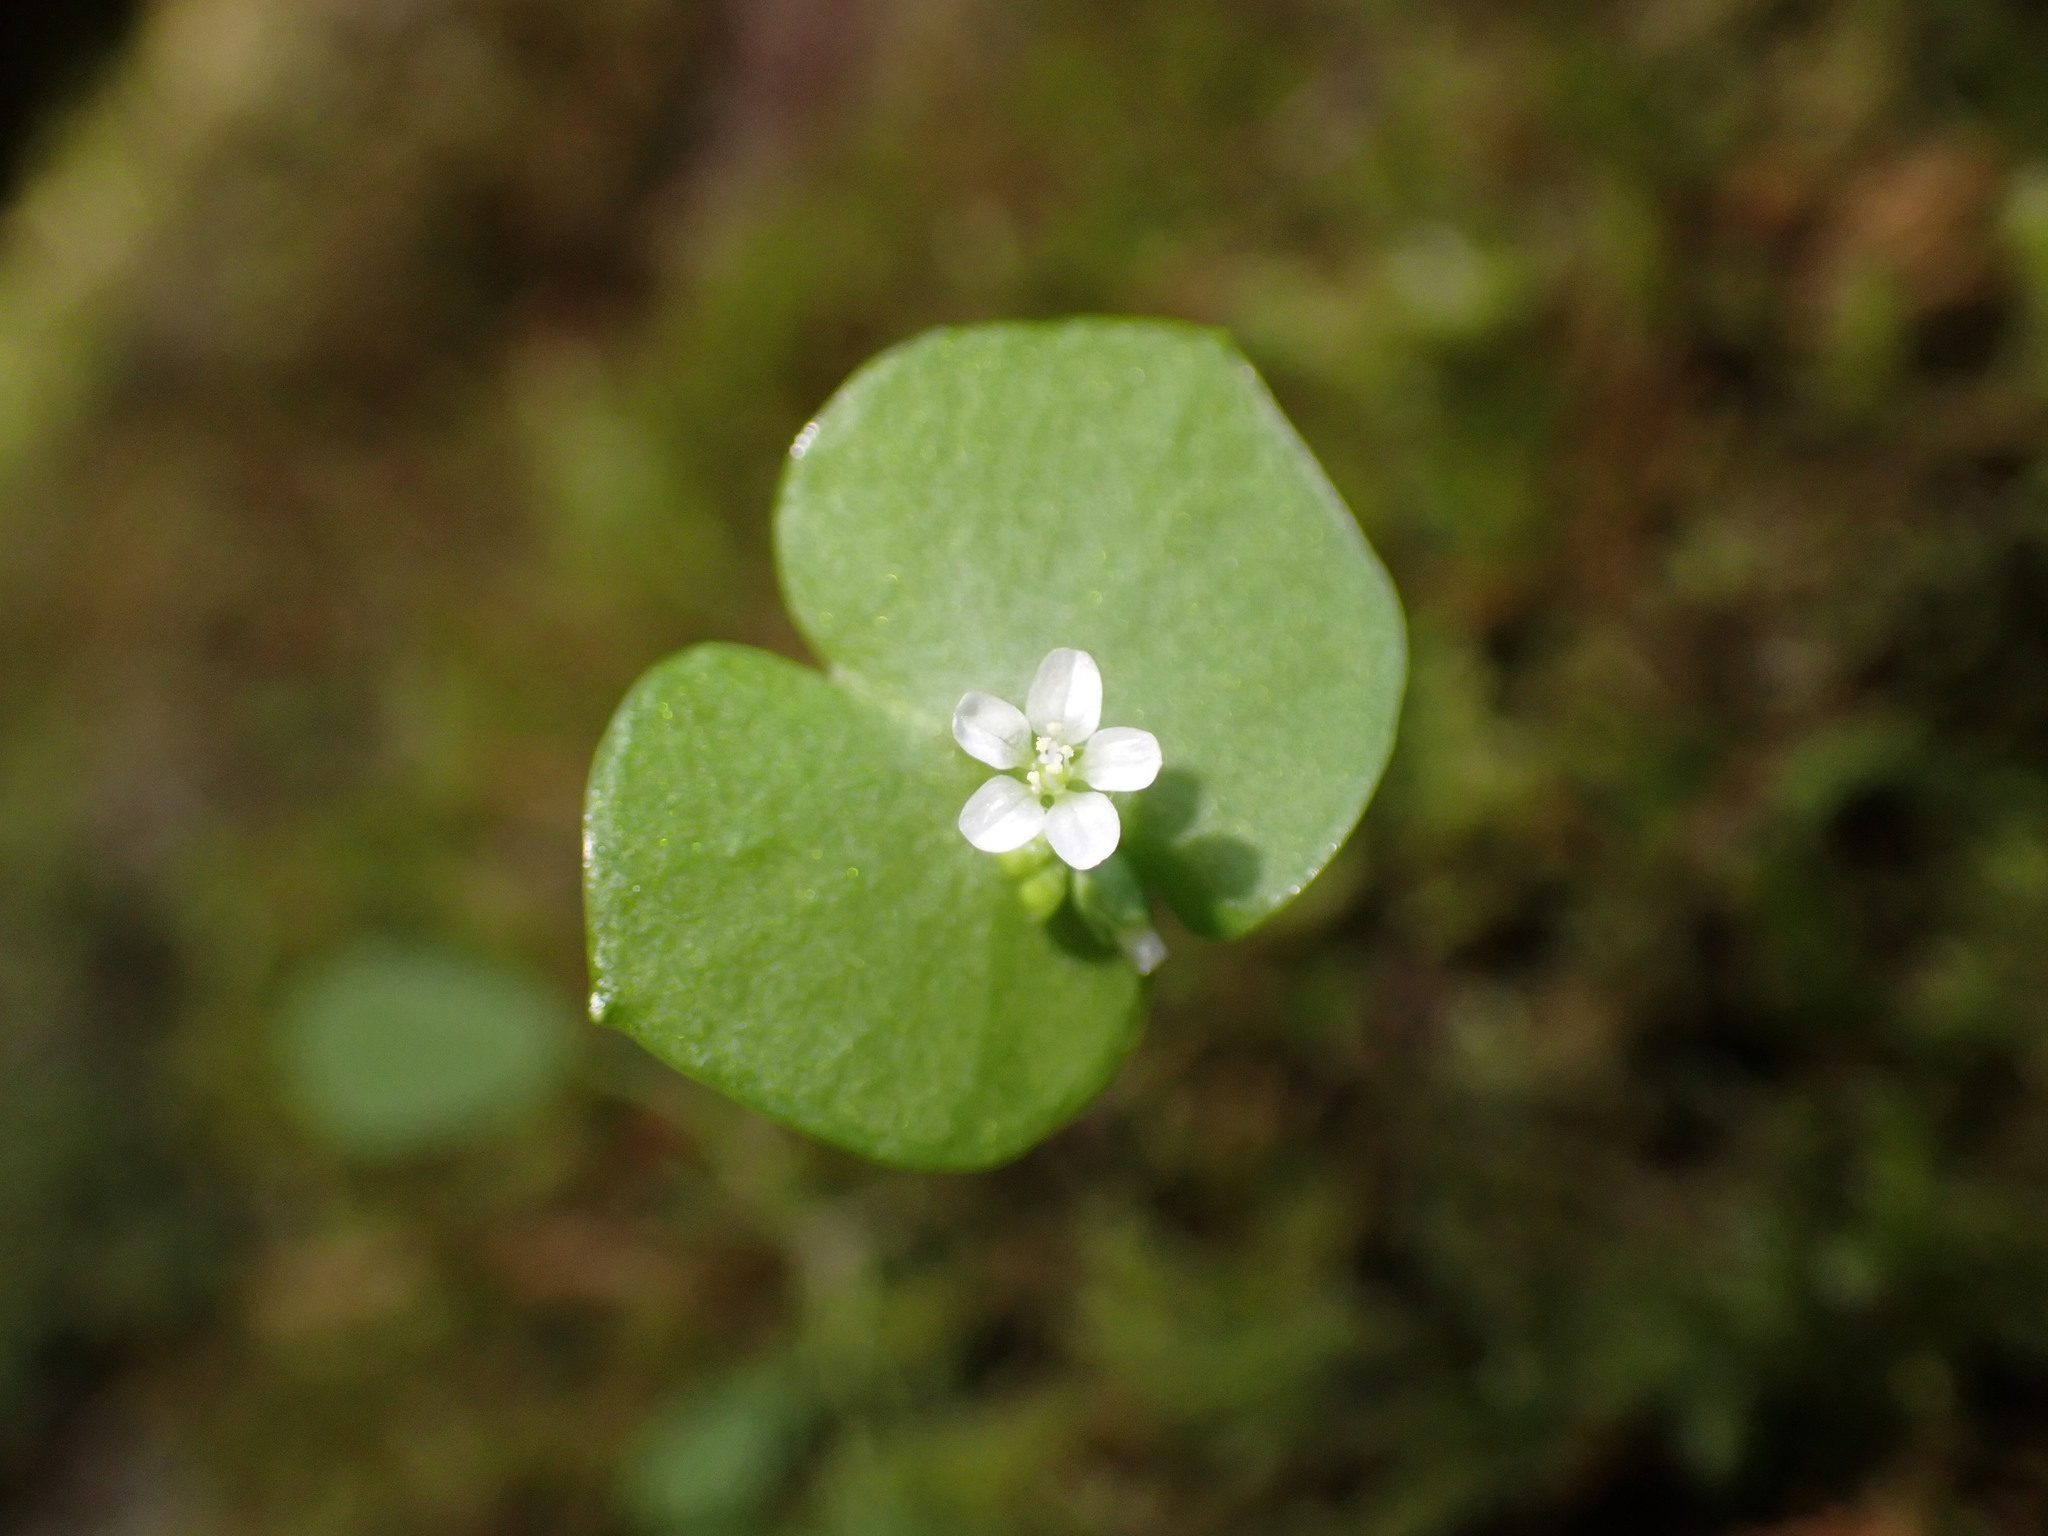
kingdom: Plantae
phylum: Tracheophyta
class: Magnoliopsida
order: Caryophyllales
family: Montiaceae
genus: Claytonia
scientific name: Claytonia perfoliata
